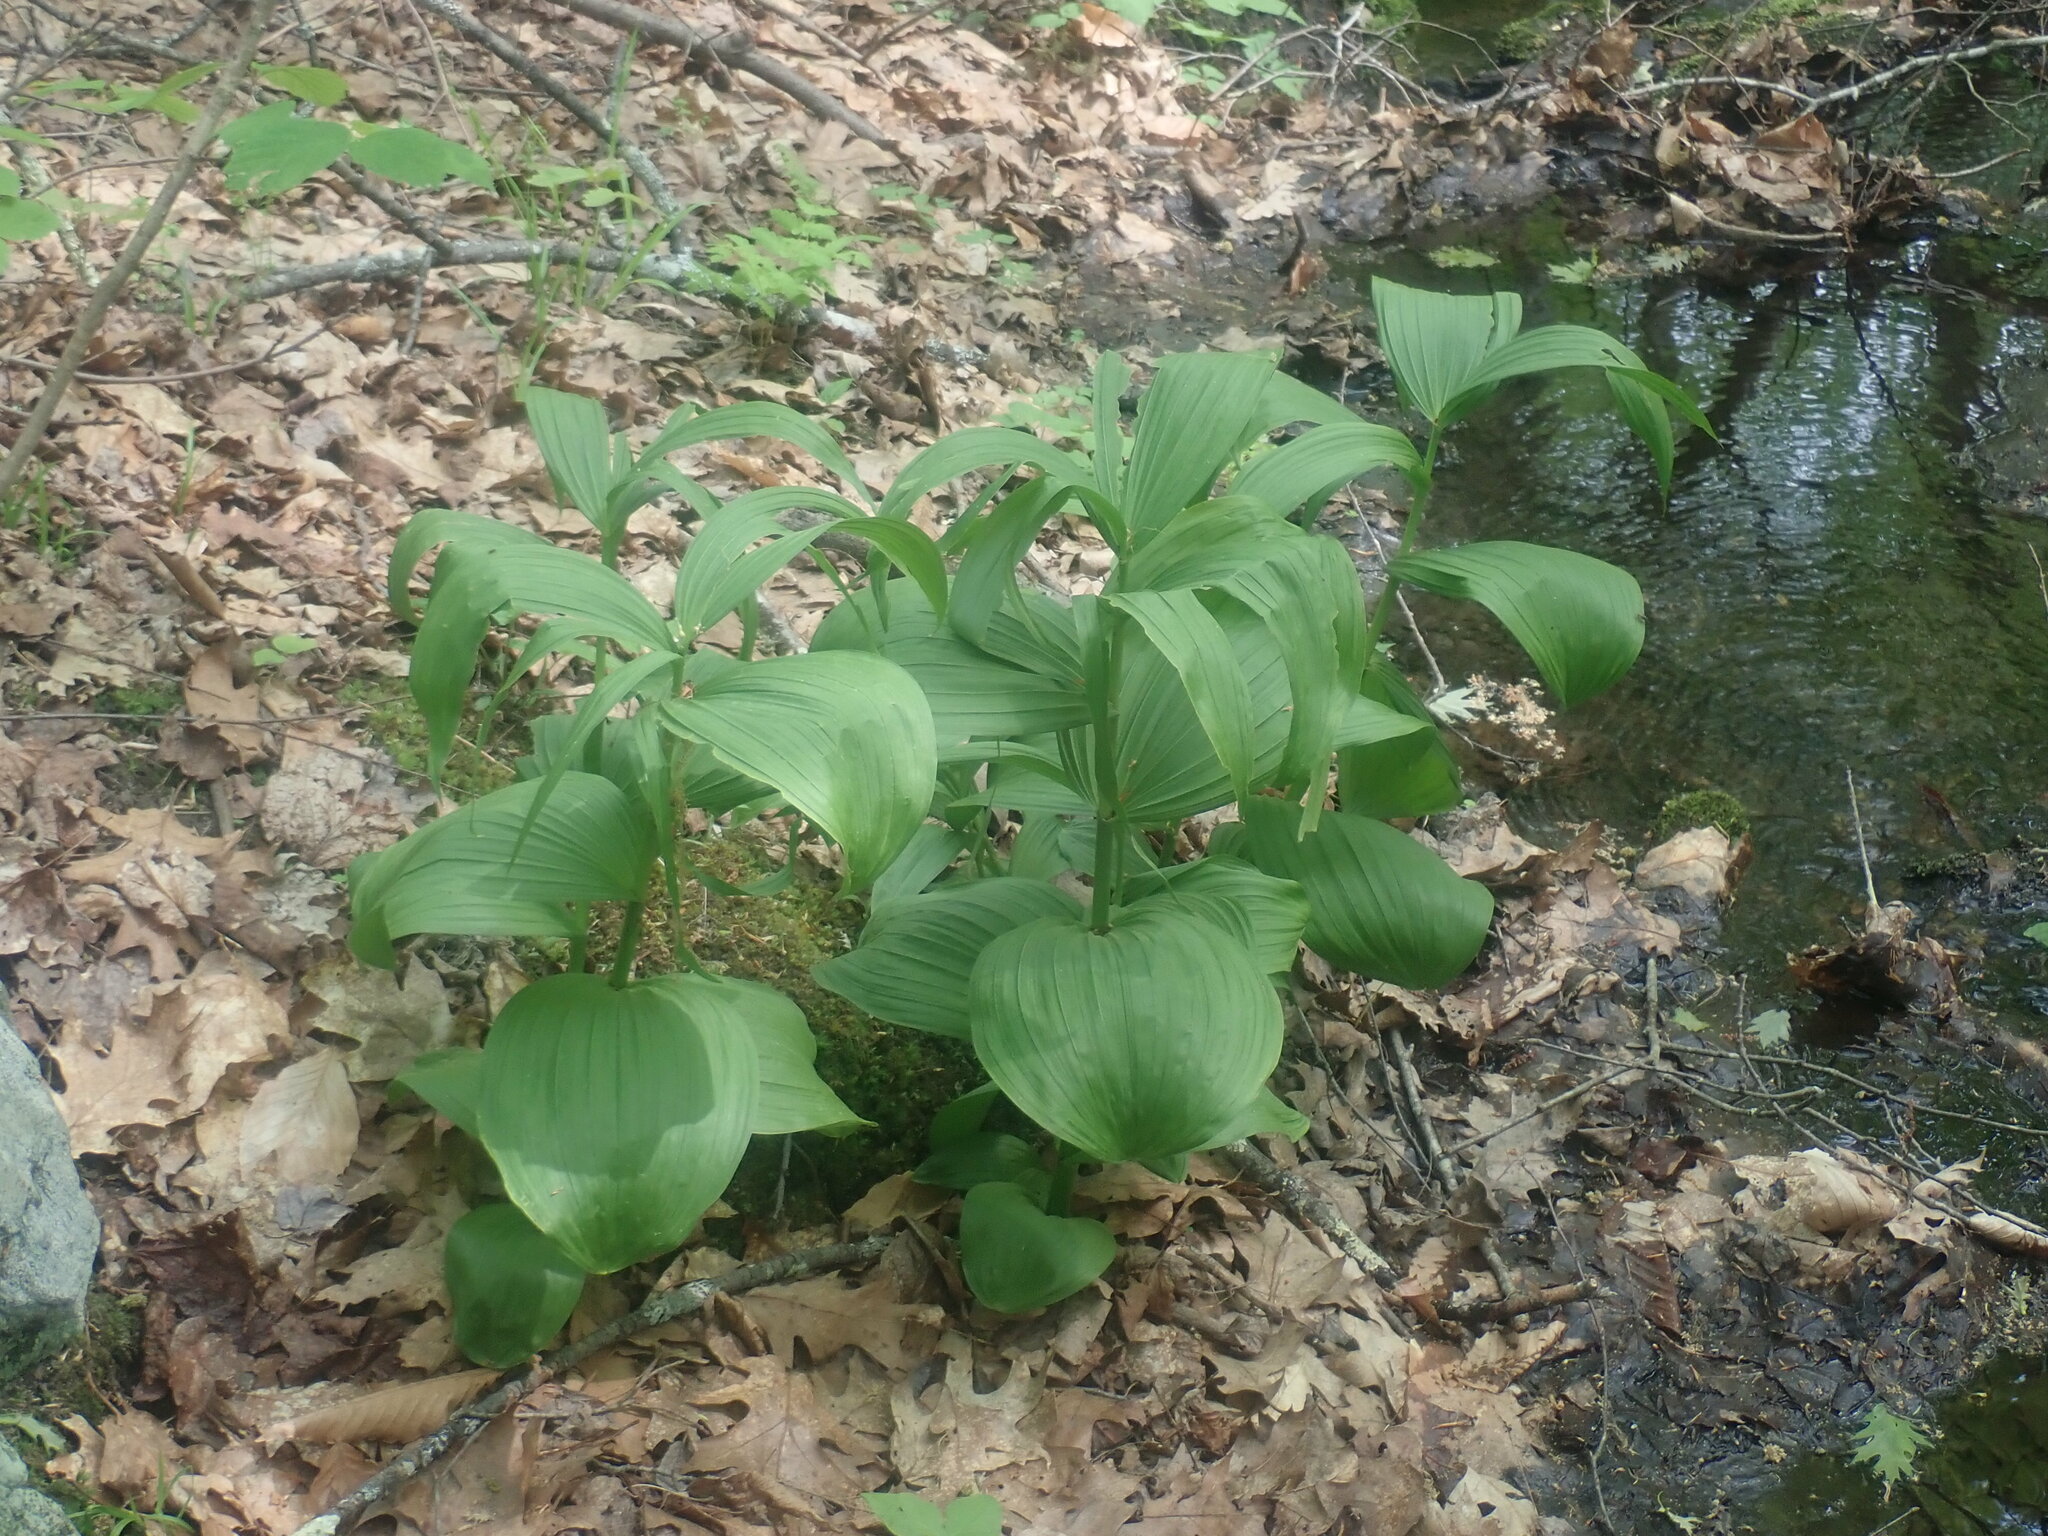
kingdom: Plantae
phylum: Tracheophyta
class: Liliopsida
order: Liliales
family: Melanthiaceae
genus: Veratrum
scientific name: Veratrum viride
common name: American false hellebore
